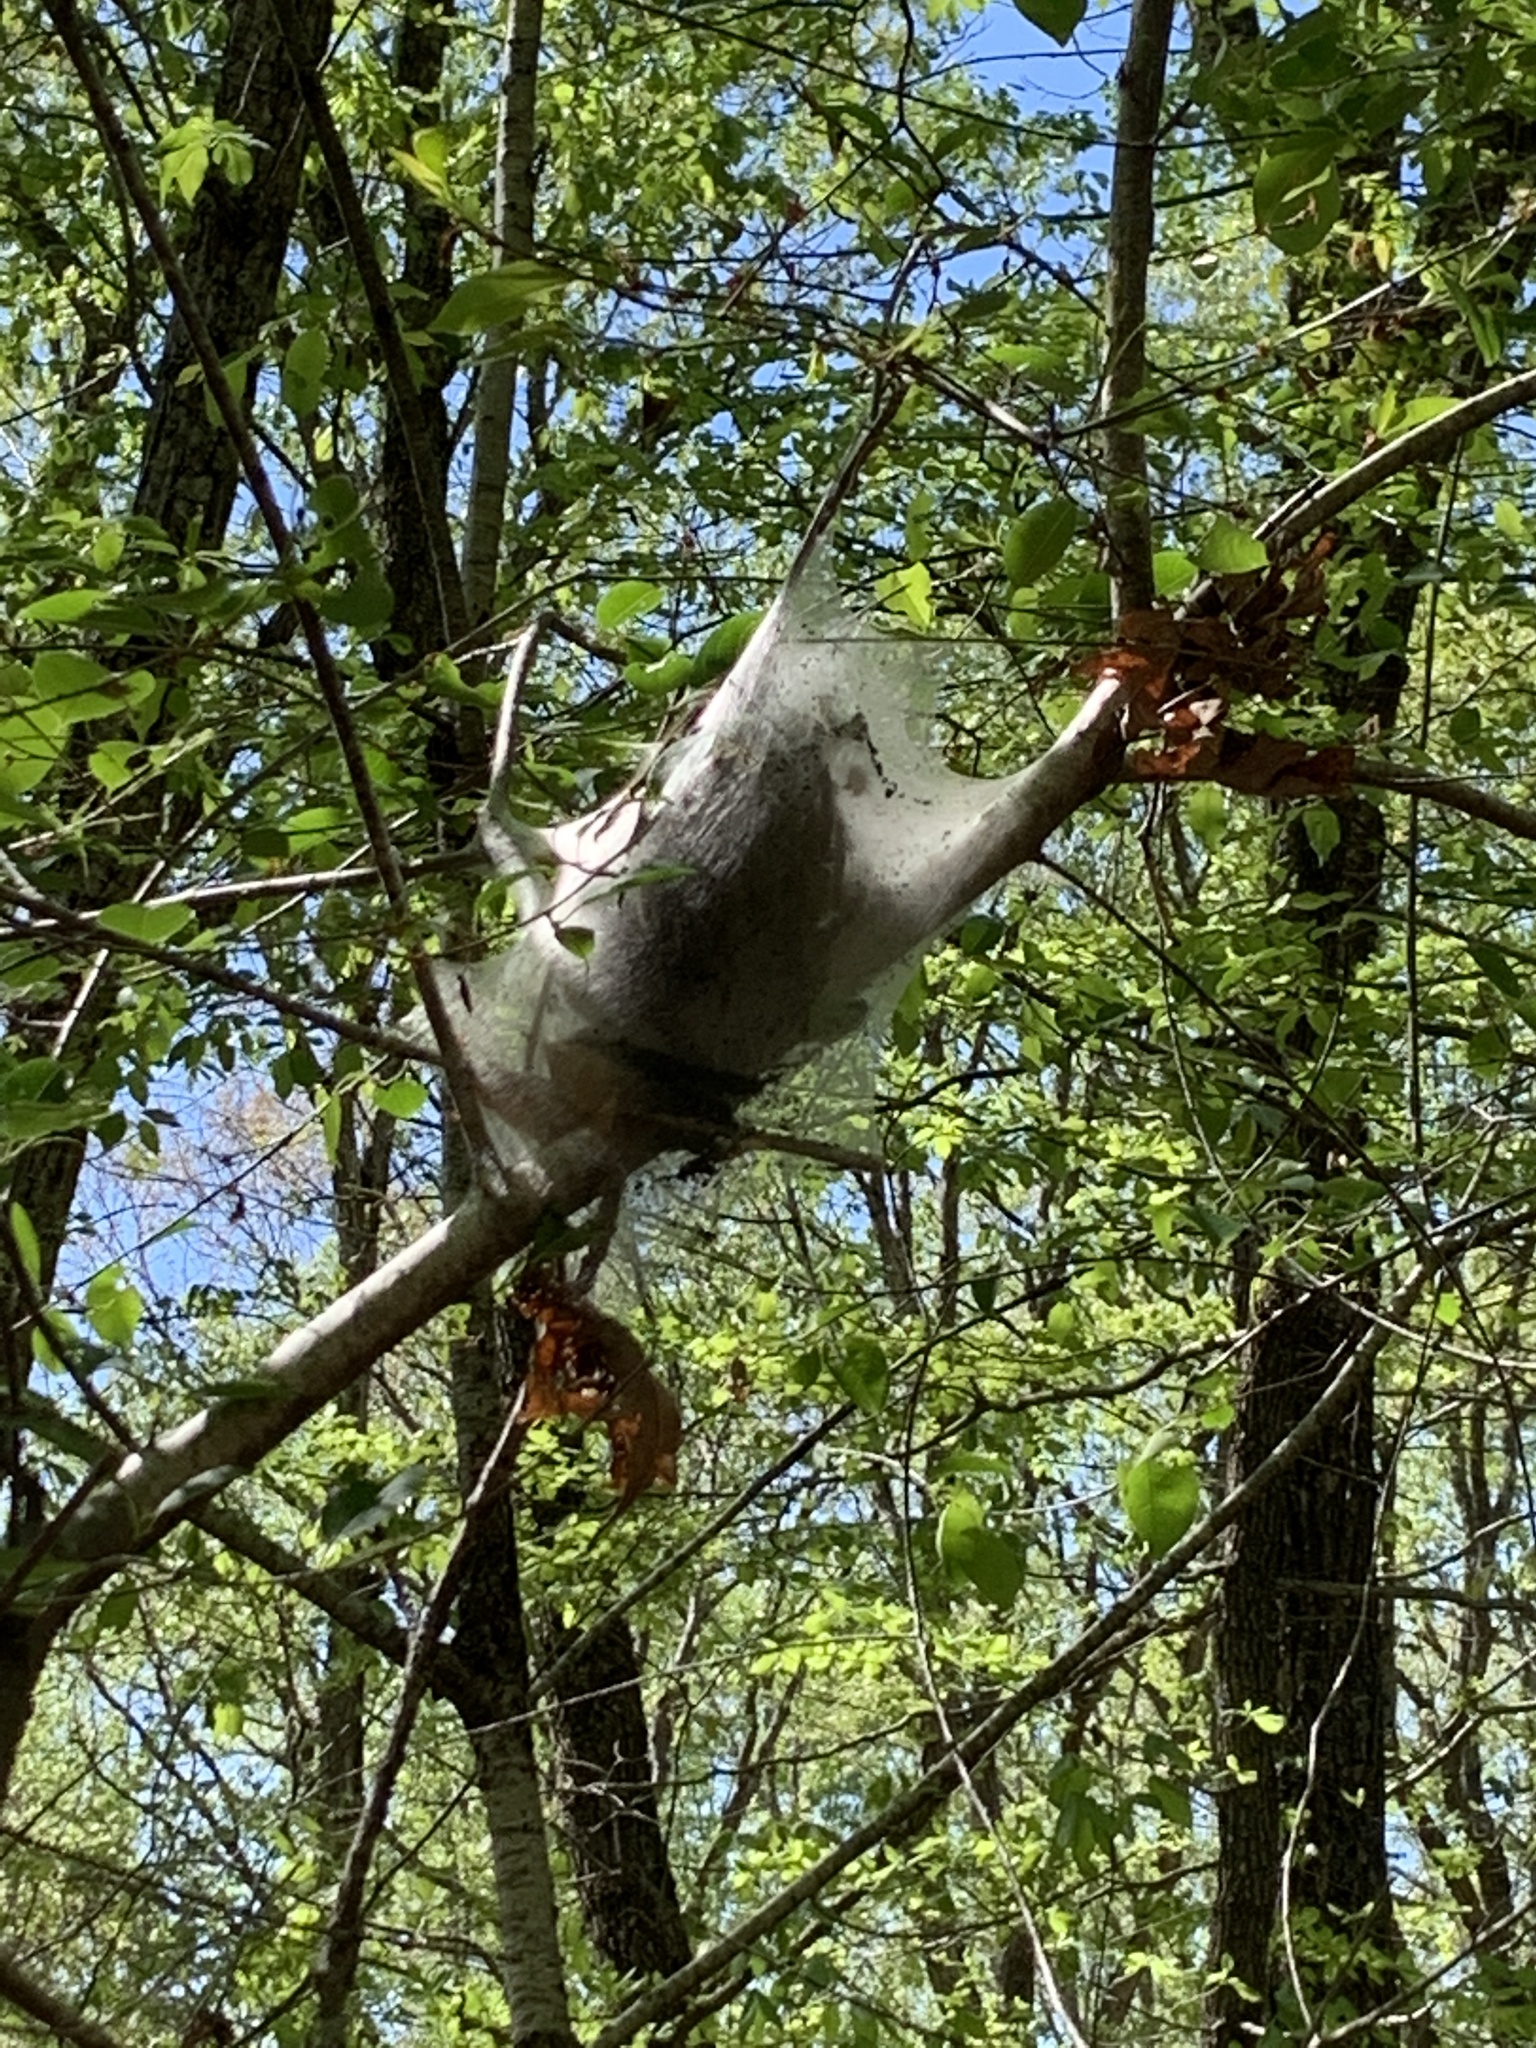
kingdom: Animalia
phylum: Arthropoda
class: Insecta
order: Lepidoptera
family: Lasiocampidae
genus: Malacosoma
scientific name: Malacosoma americana
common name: Eastern tent caterpillar moth
